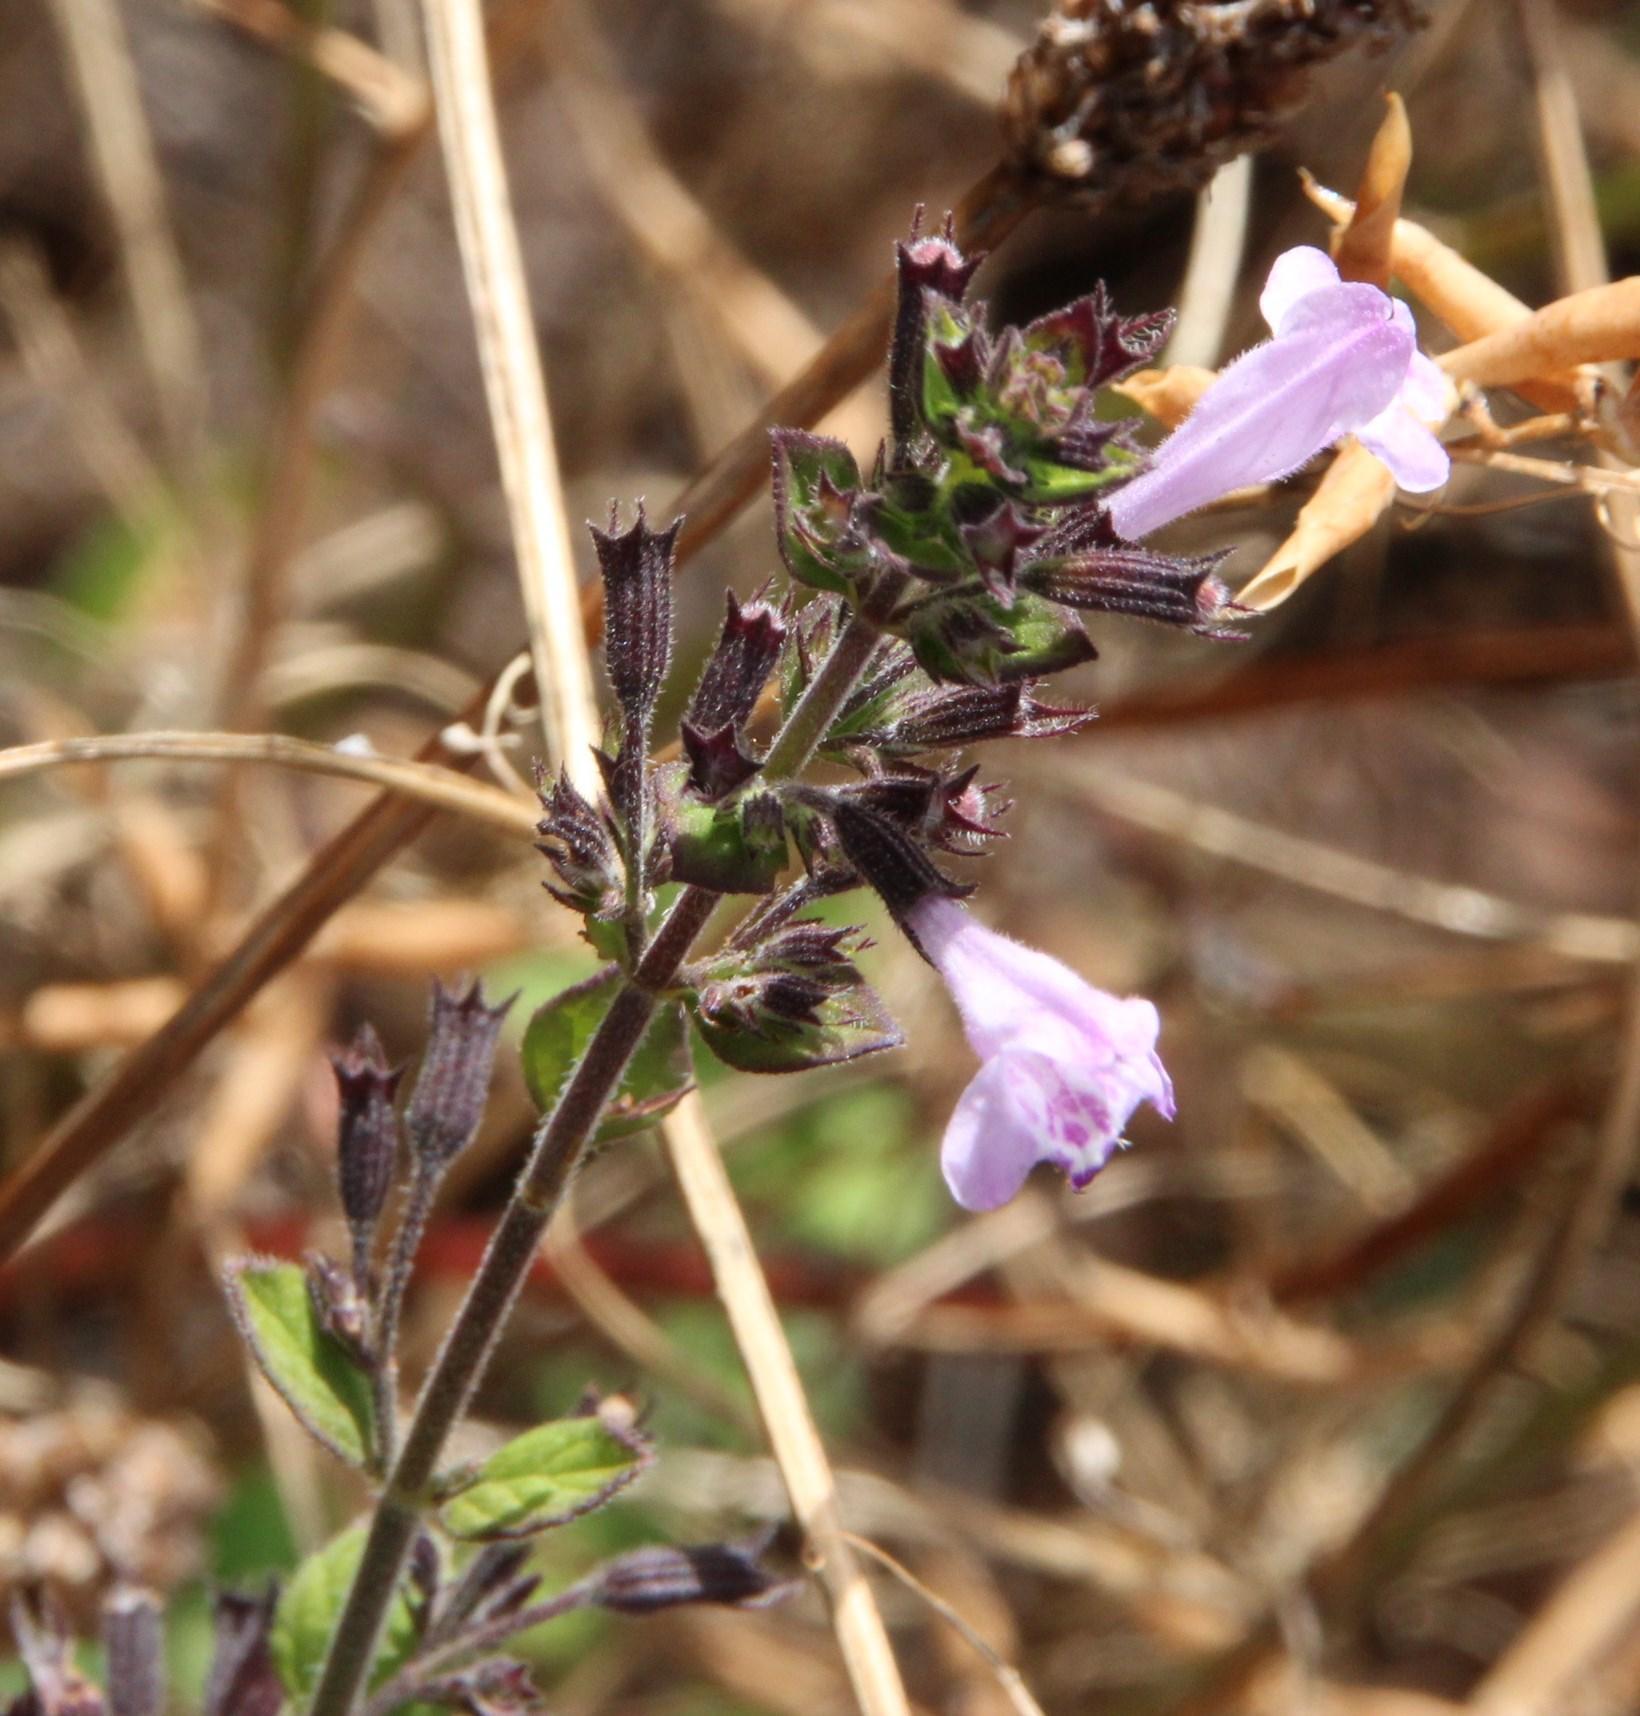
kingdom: Plantae
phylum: Tracheophyta
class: Magnoliopsida
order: Lamiales
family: Lamiaceae
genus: Clinopodium
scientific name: Clinopodium menthifolium
